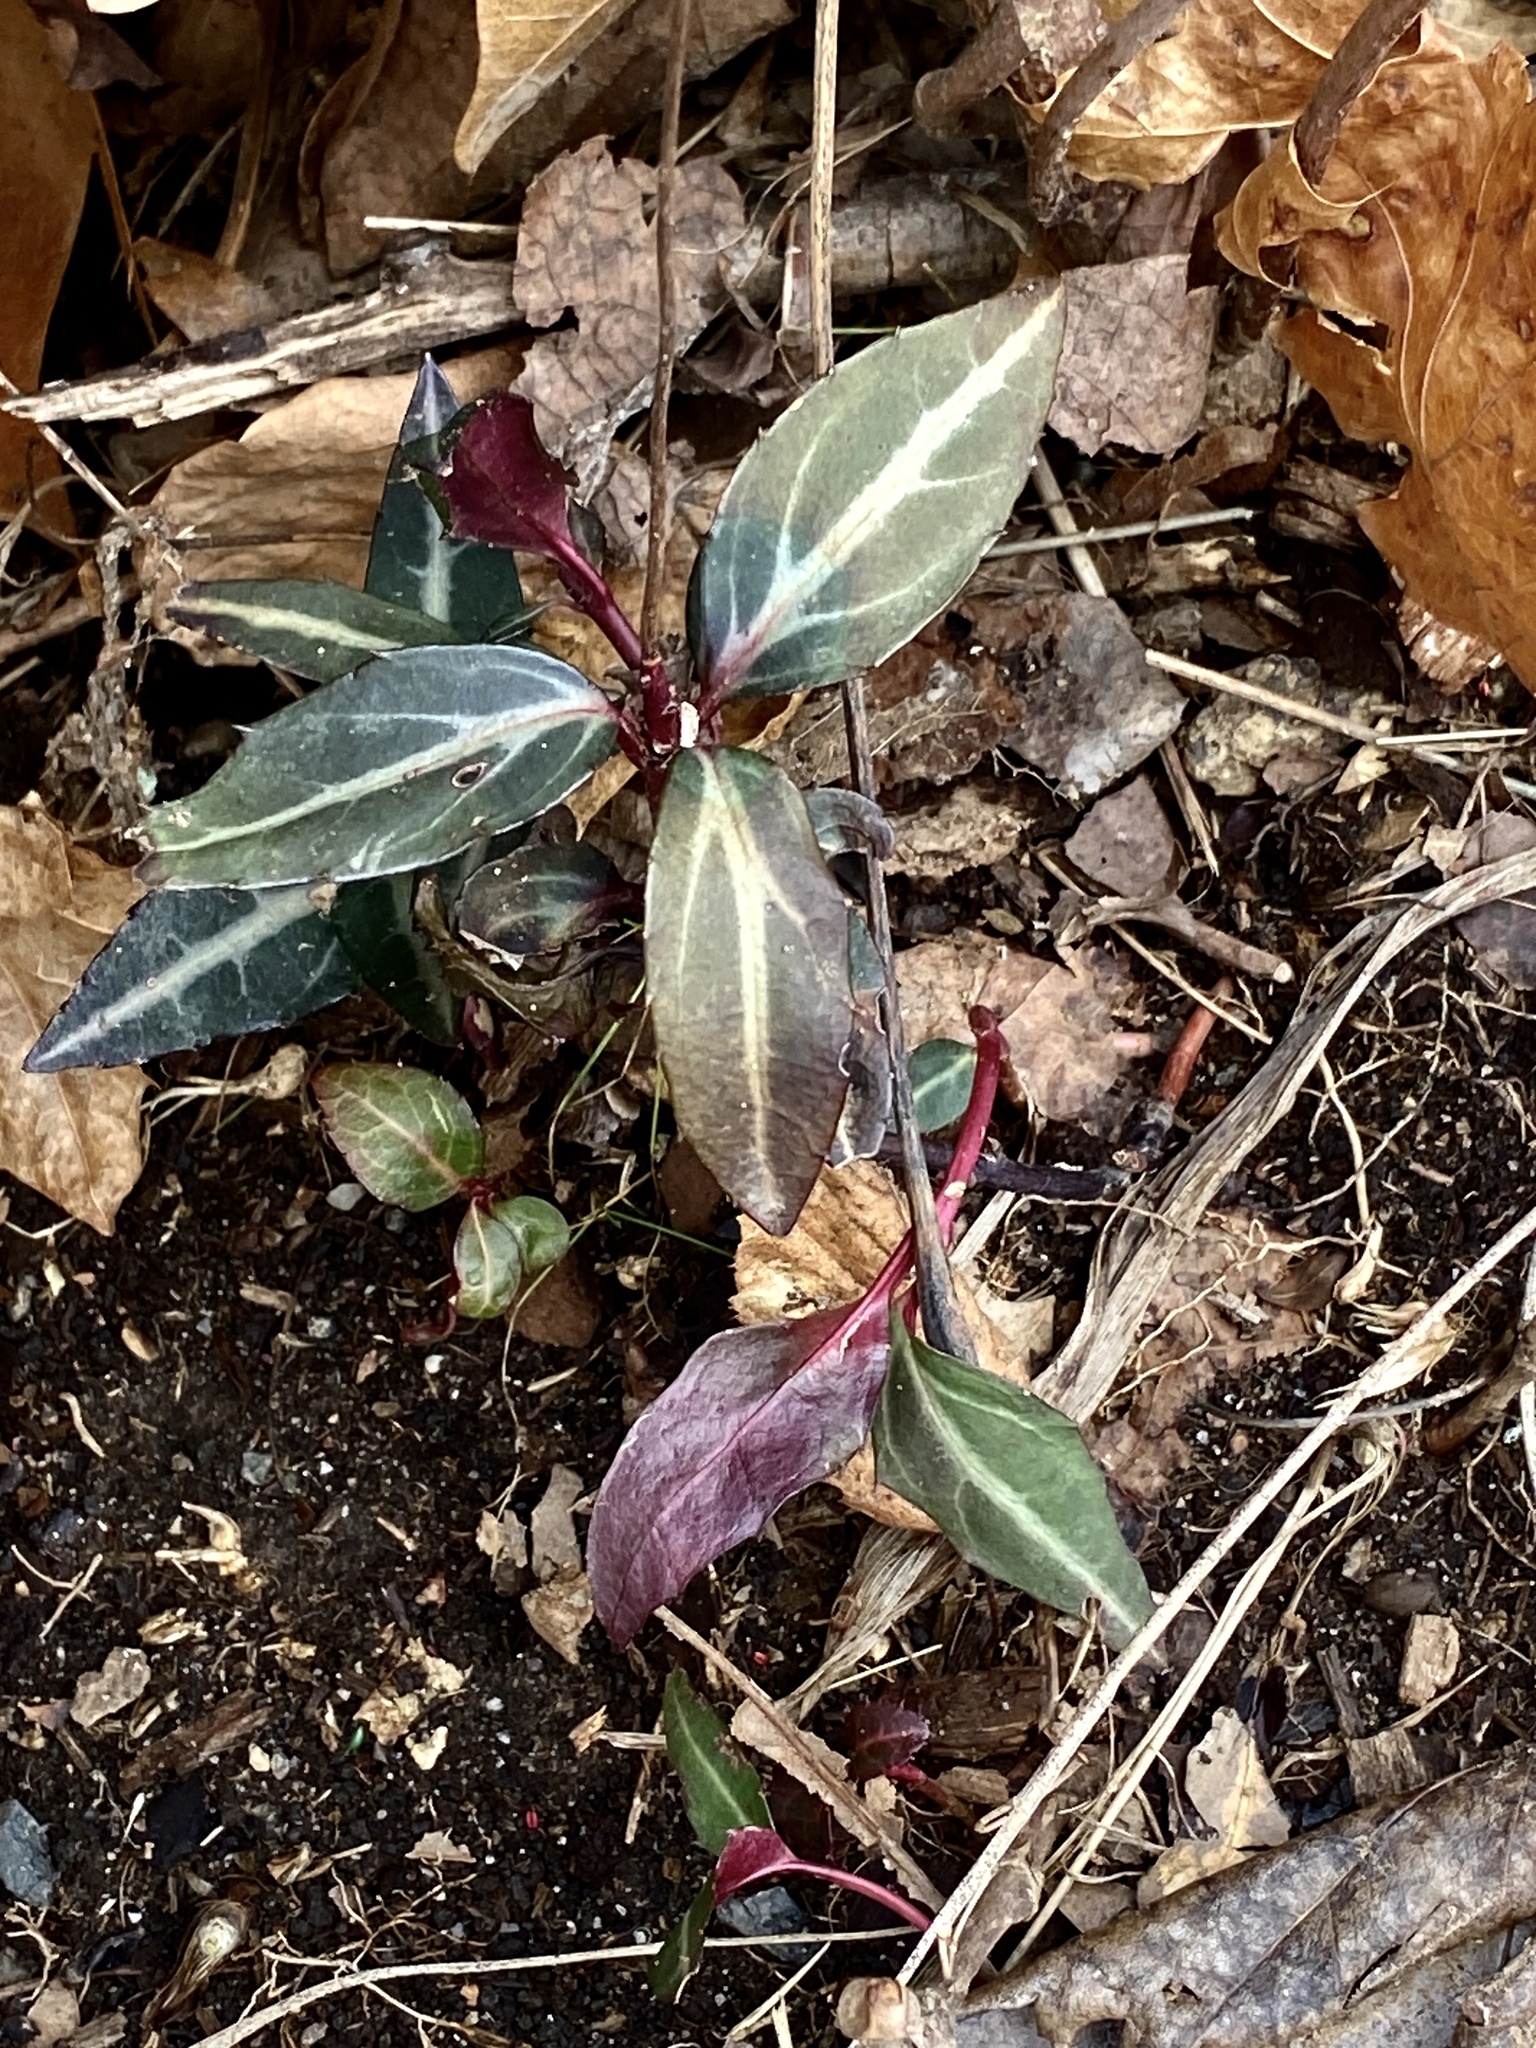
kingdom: Plantae
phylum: Tracheophyta
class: Magnoliopsida
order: Ericales
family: Ericaceae
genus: Chimaphila
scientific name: Chimaphila maculata
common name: Spotted pipsissewa
